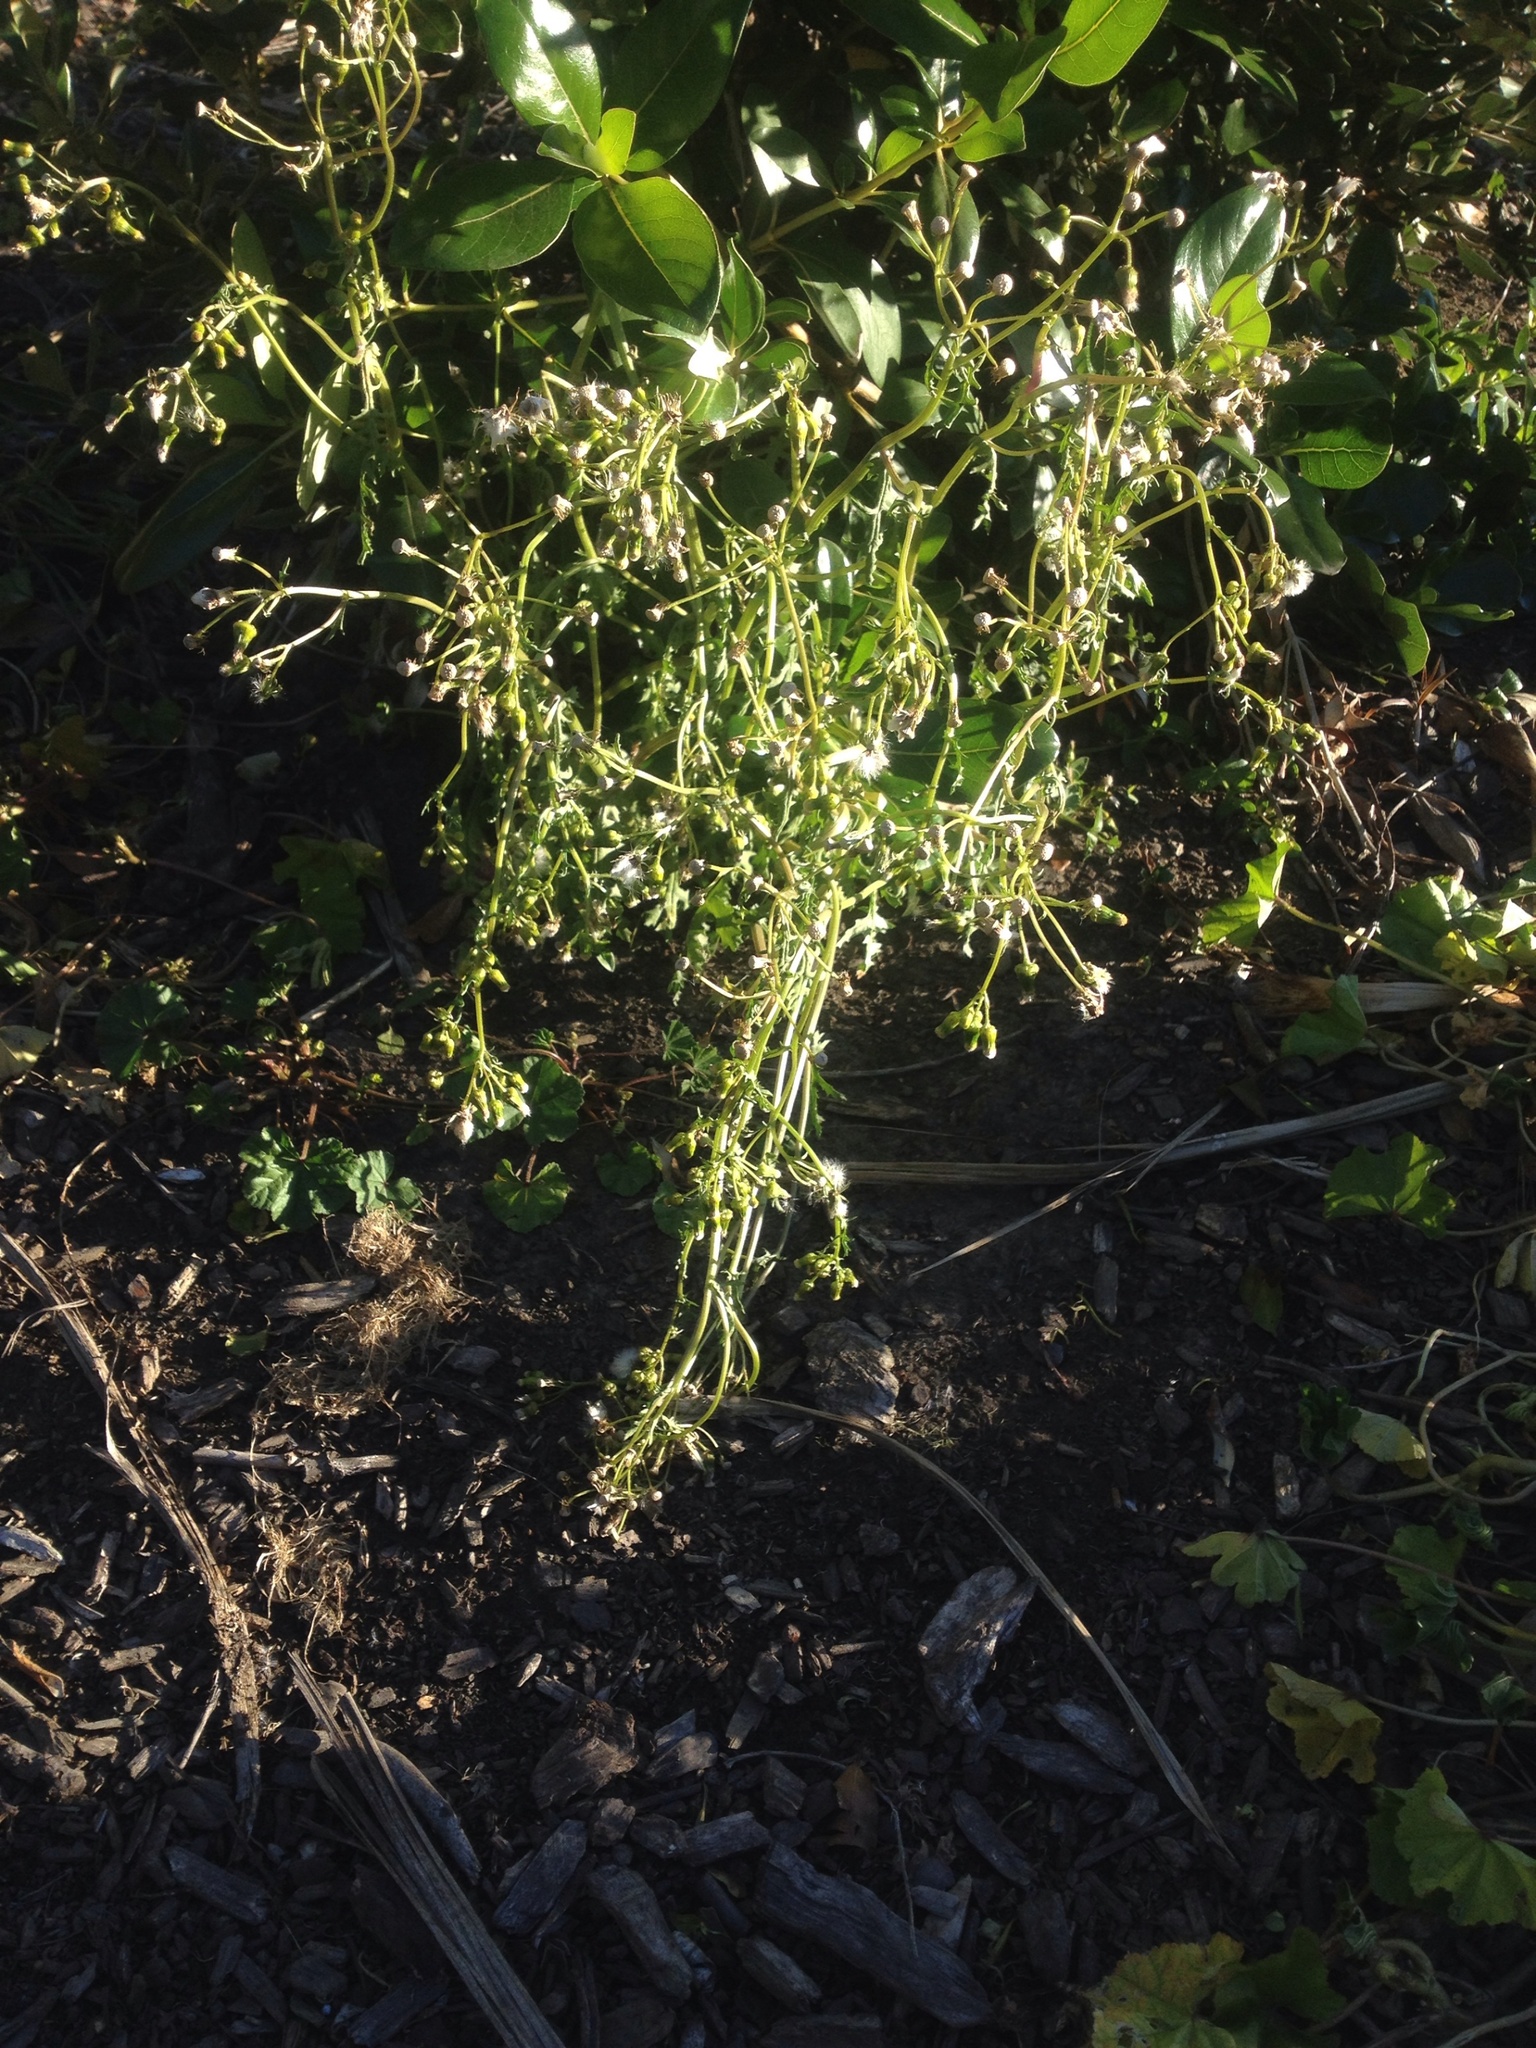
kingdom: Plantae
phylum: Tracheophyta
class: Magnoliopsida
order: Asterales
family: Asteraceae
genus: Senecio
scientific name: Senecio vulgaris
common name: Old-man-in-the-spring
